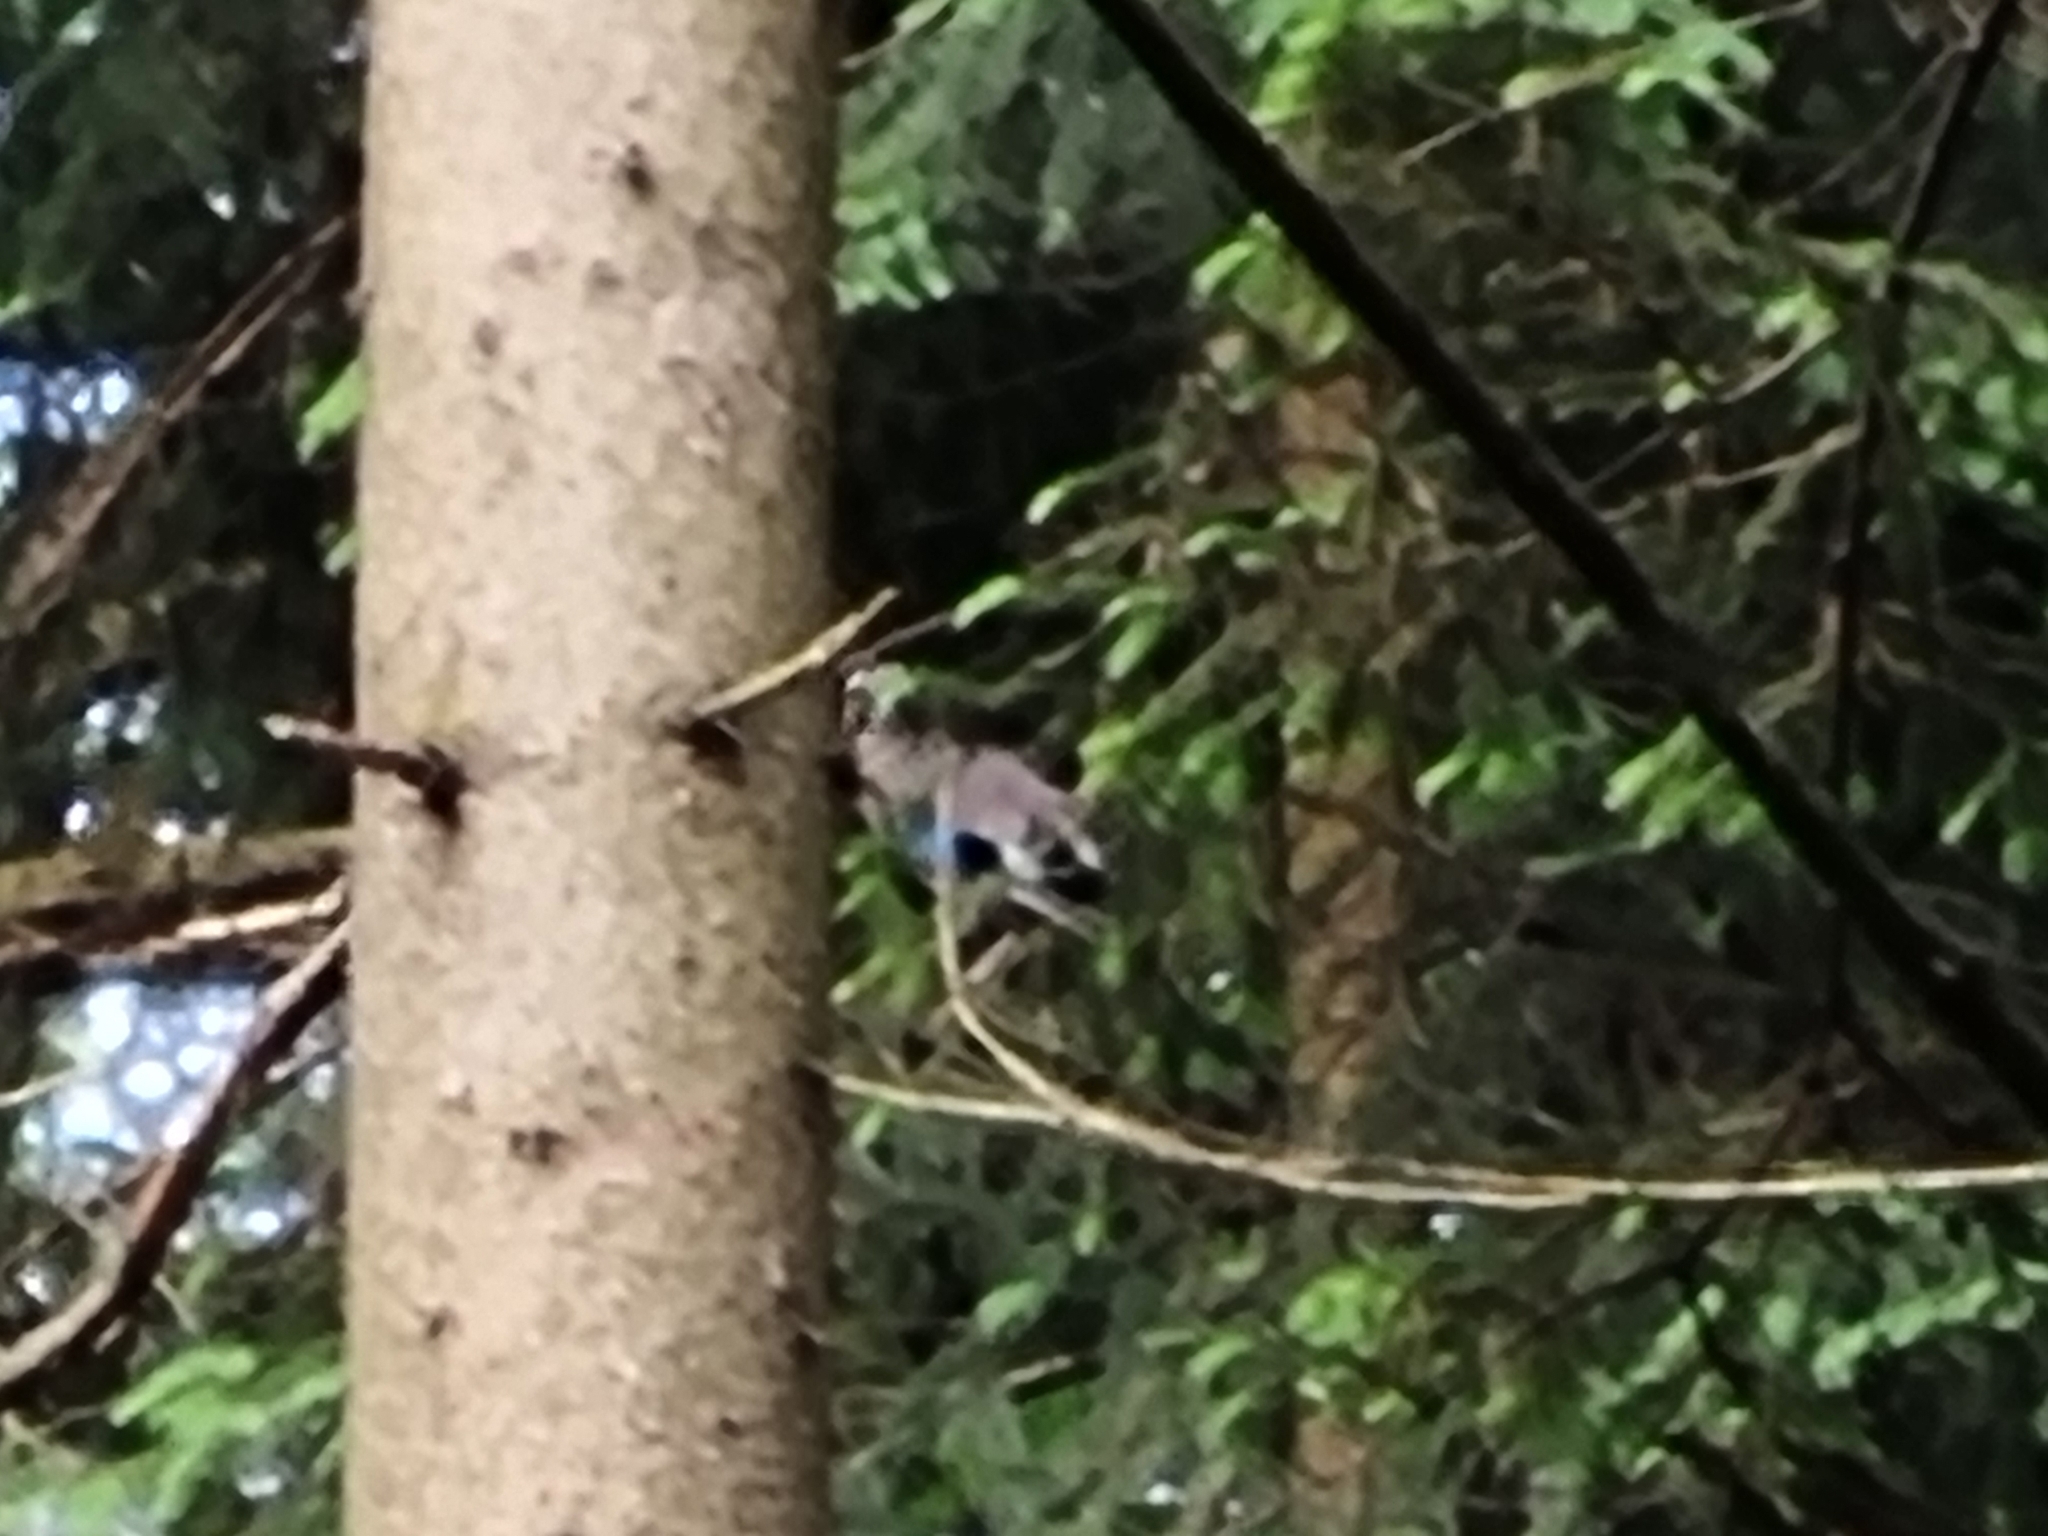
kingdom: Animalia
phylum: Chordata
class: Aves
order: Passeriformes
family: Corvidae
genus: Garrulus
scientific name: Garrulus glandarius
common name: Eurasian jay
